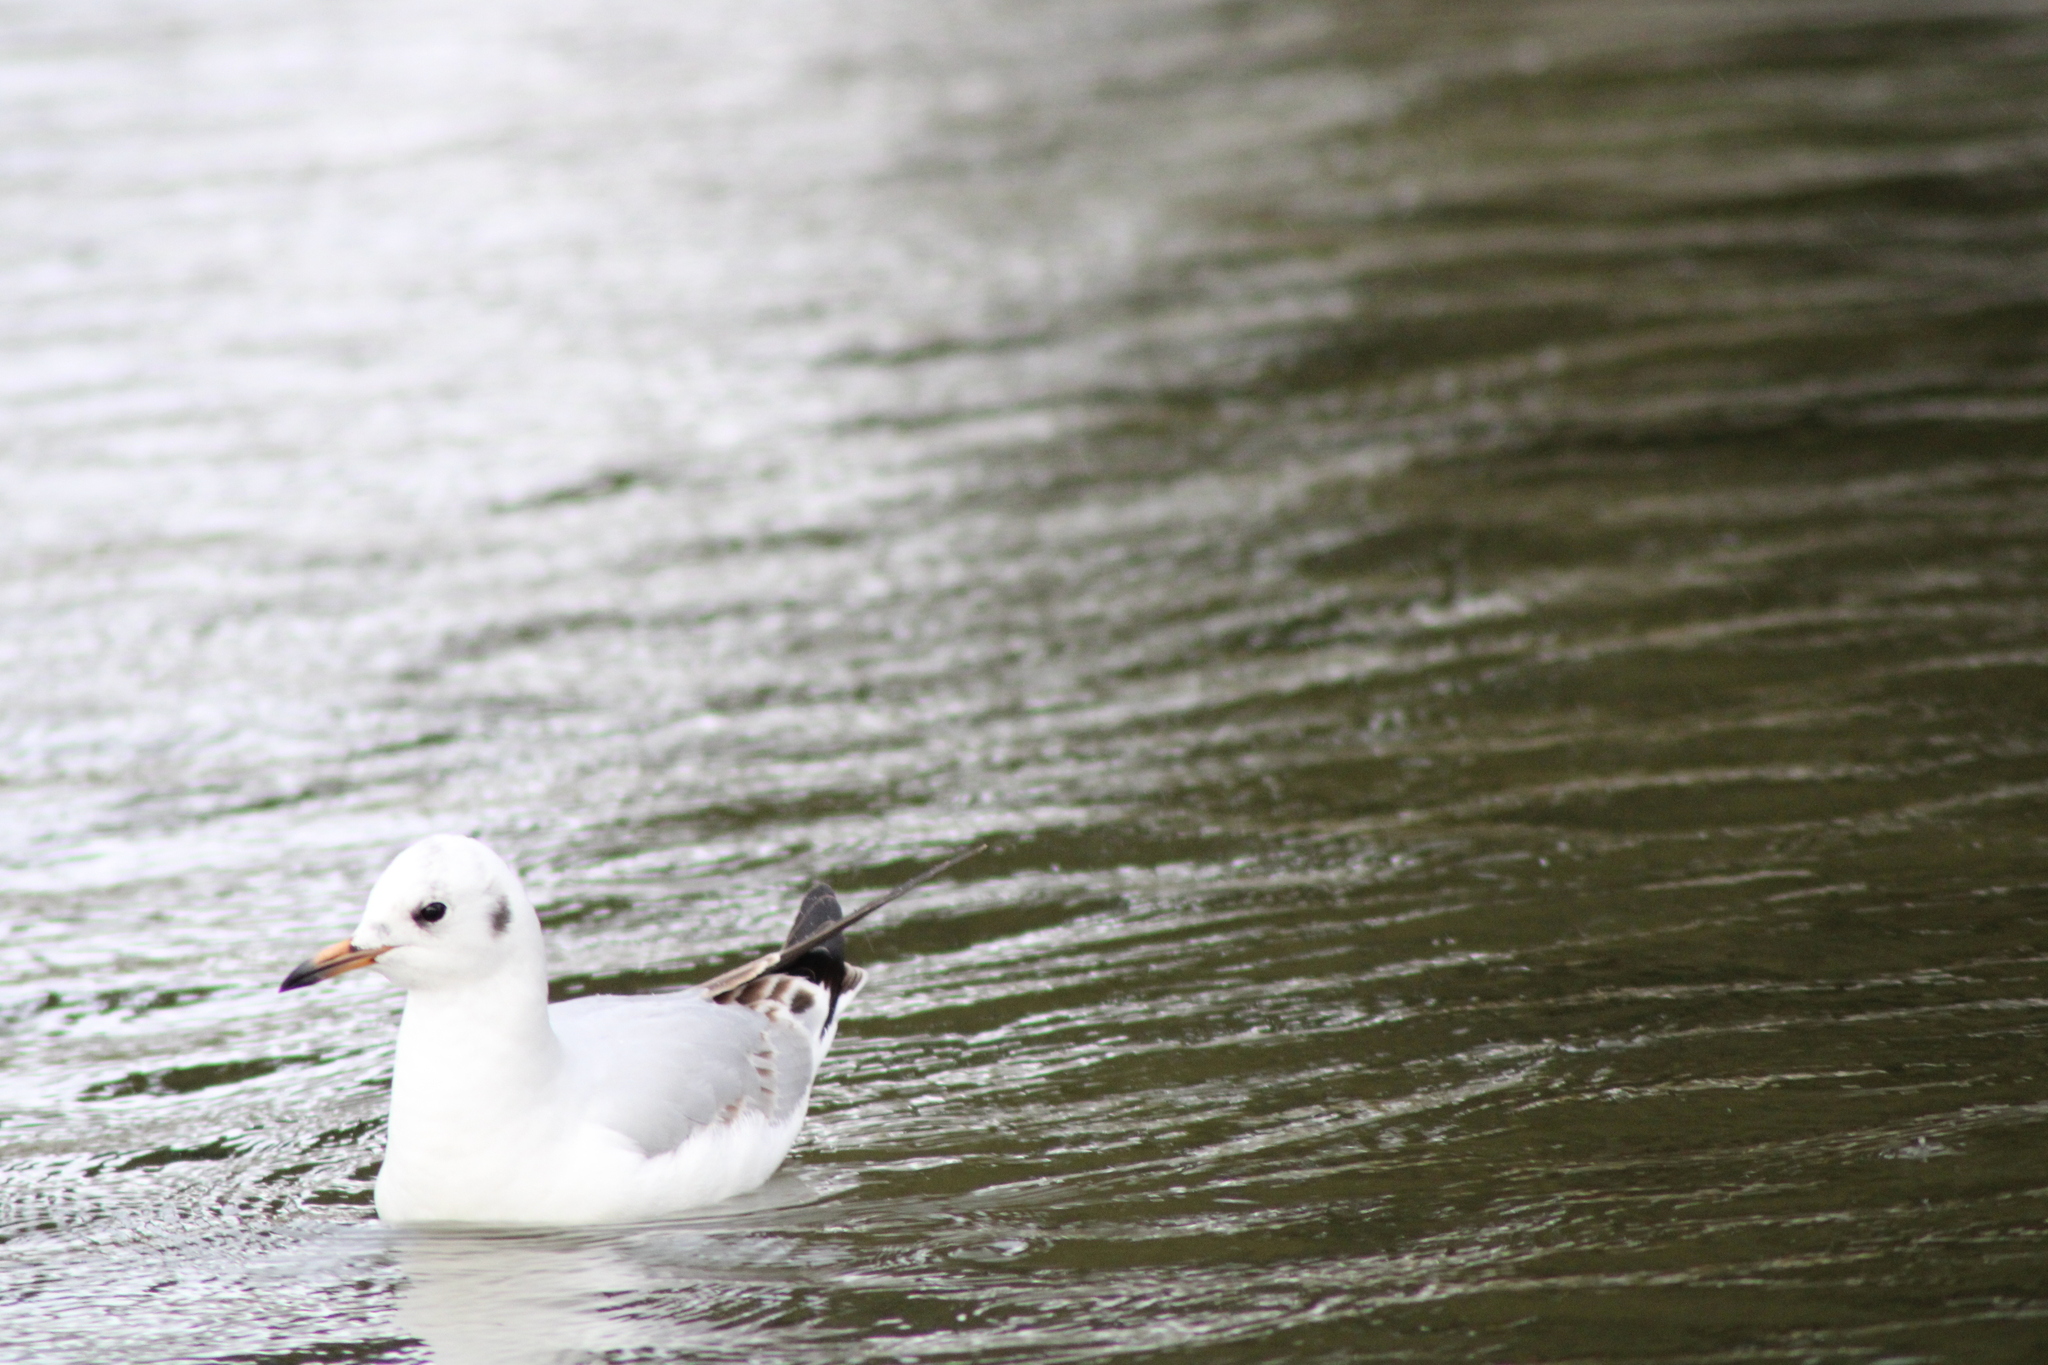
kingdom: Animalia
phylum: Chordata
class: Aves
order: Charadriiformes
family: Laridae
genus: Chroicocephalus
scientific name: Chroicocephalus ridibundus
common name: Black-headed gull
